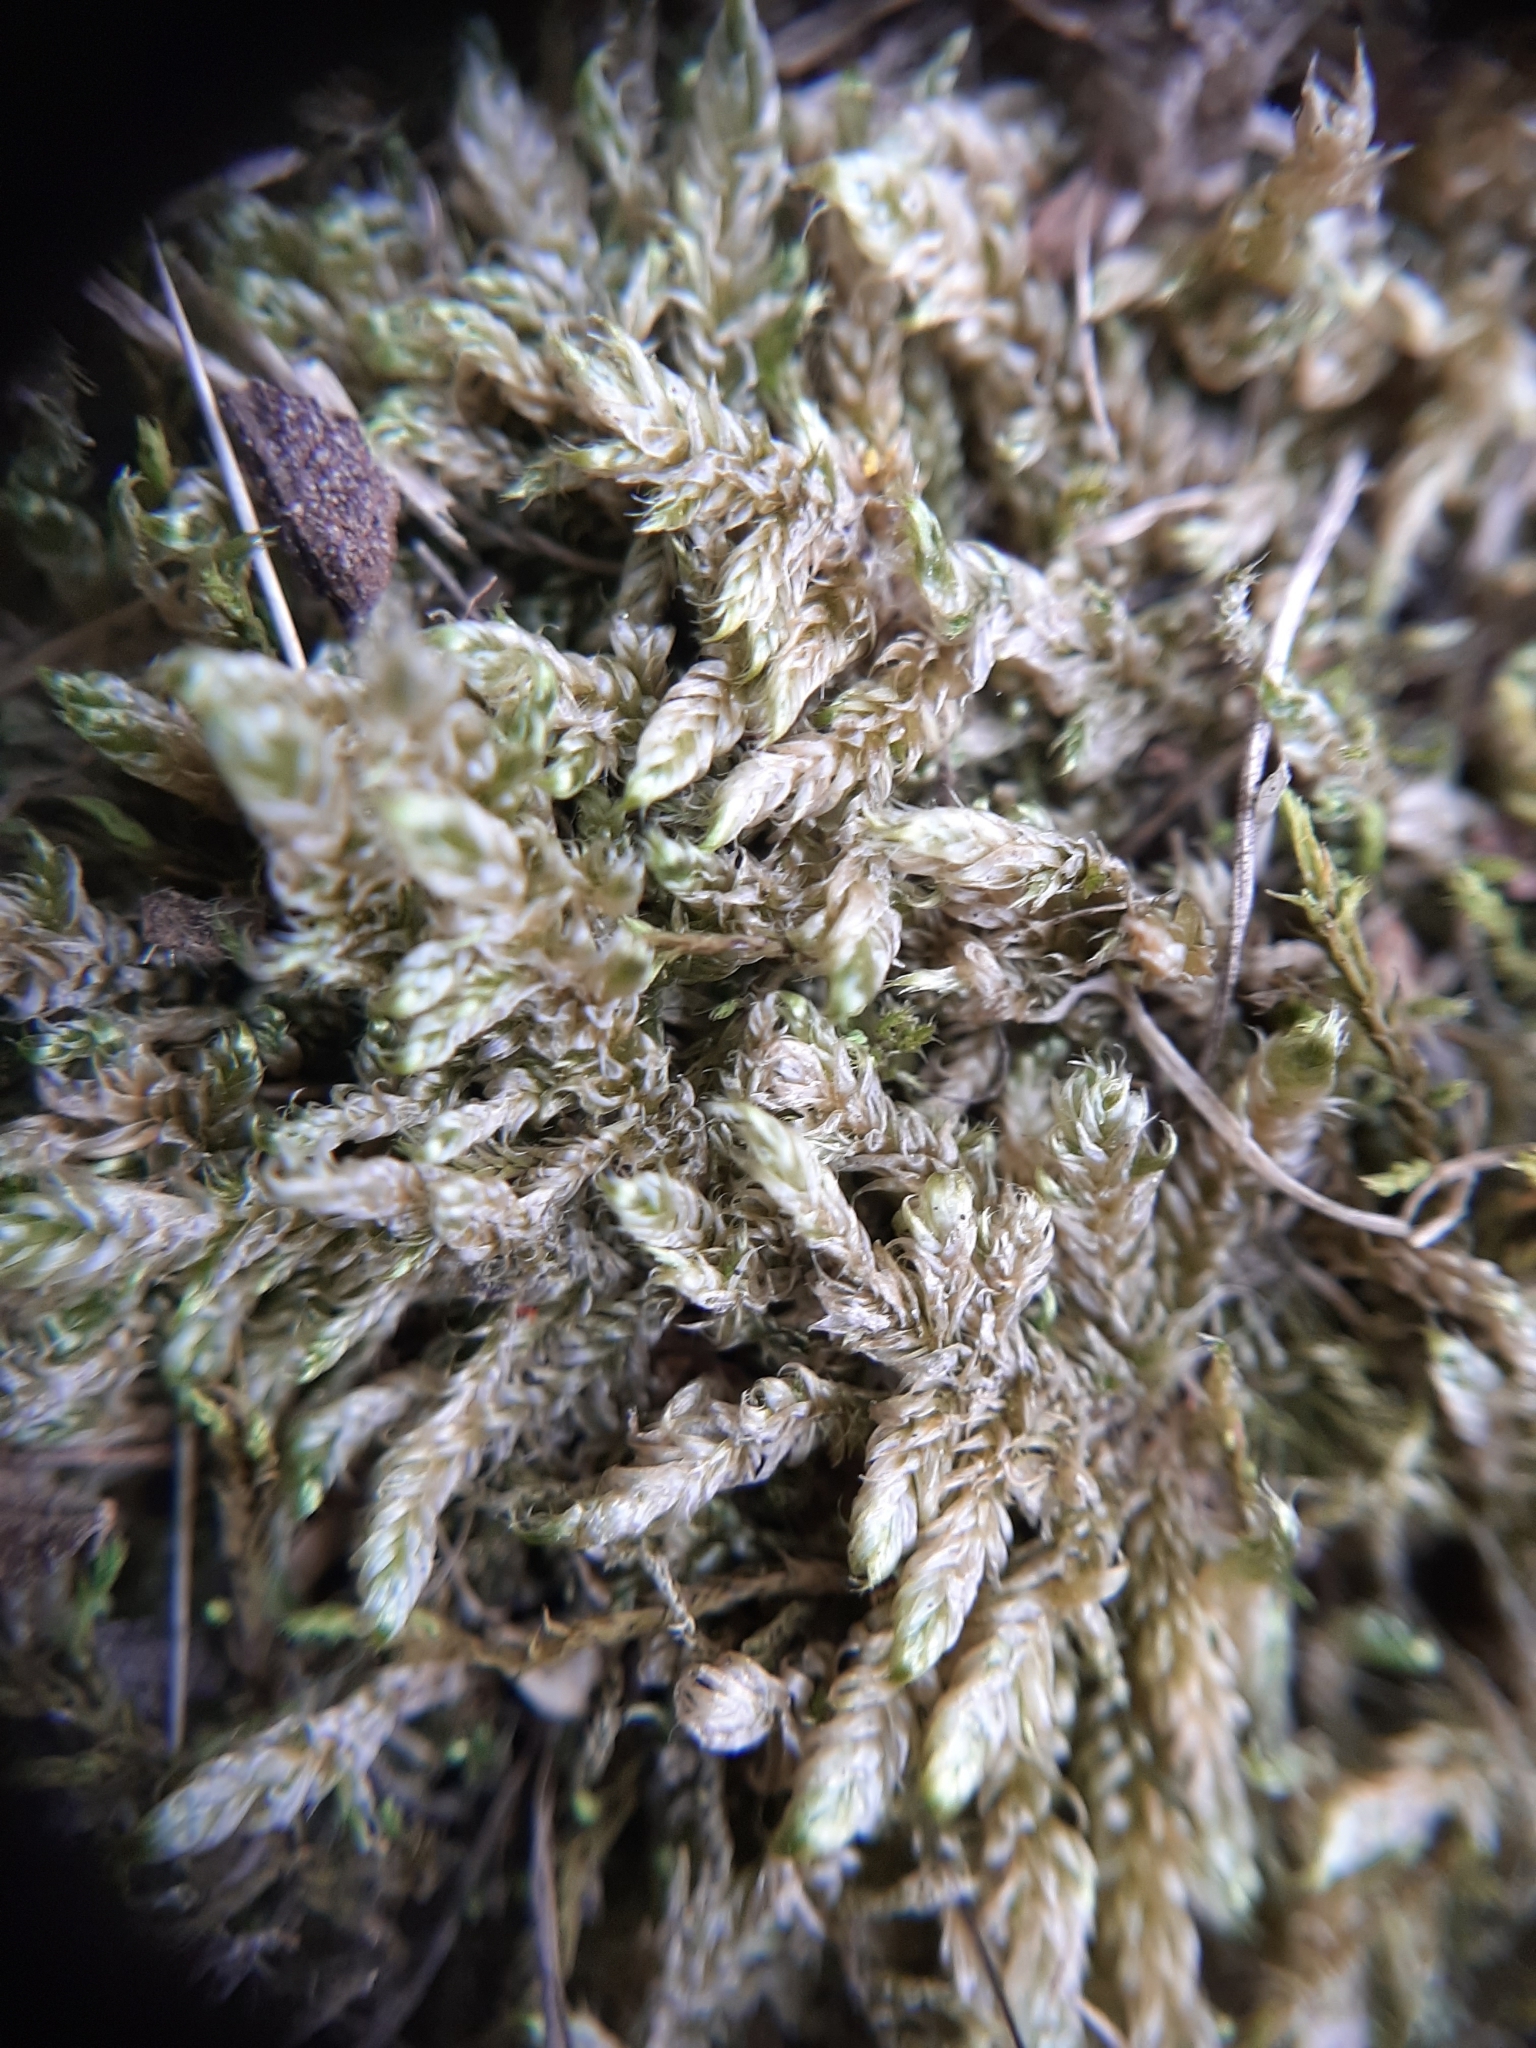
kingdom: Plantae
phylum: Bryophyta
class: Bryopsida
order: Hypnales
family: Hypnaceae
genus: Hypnum
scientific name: Hypnum cupressiforme
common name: Cypress-leaved plait-moss
